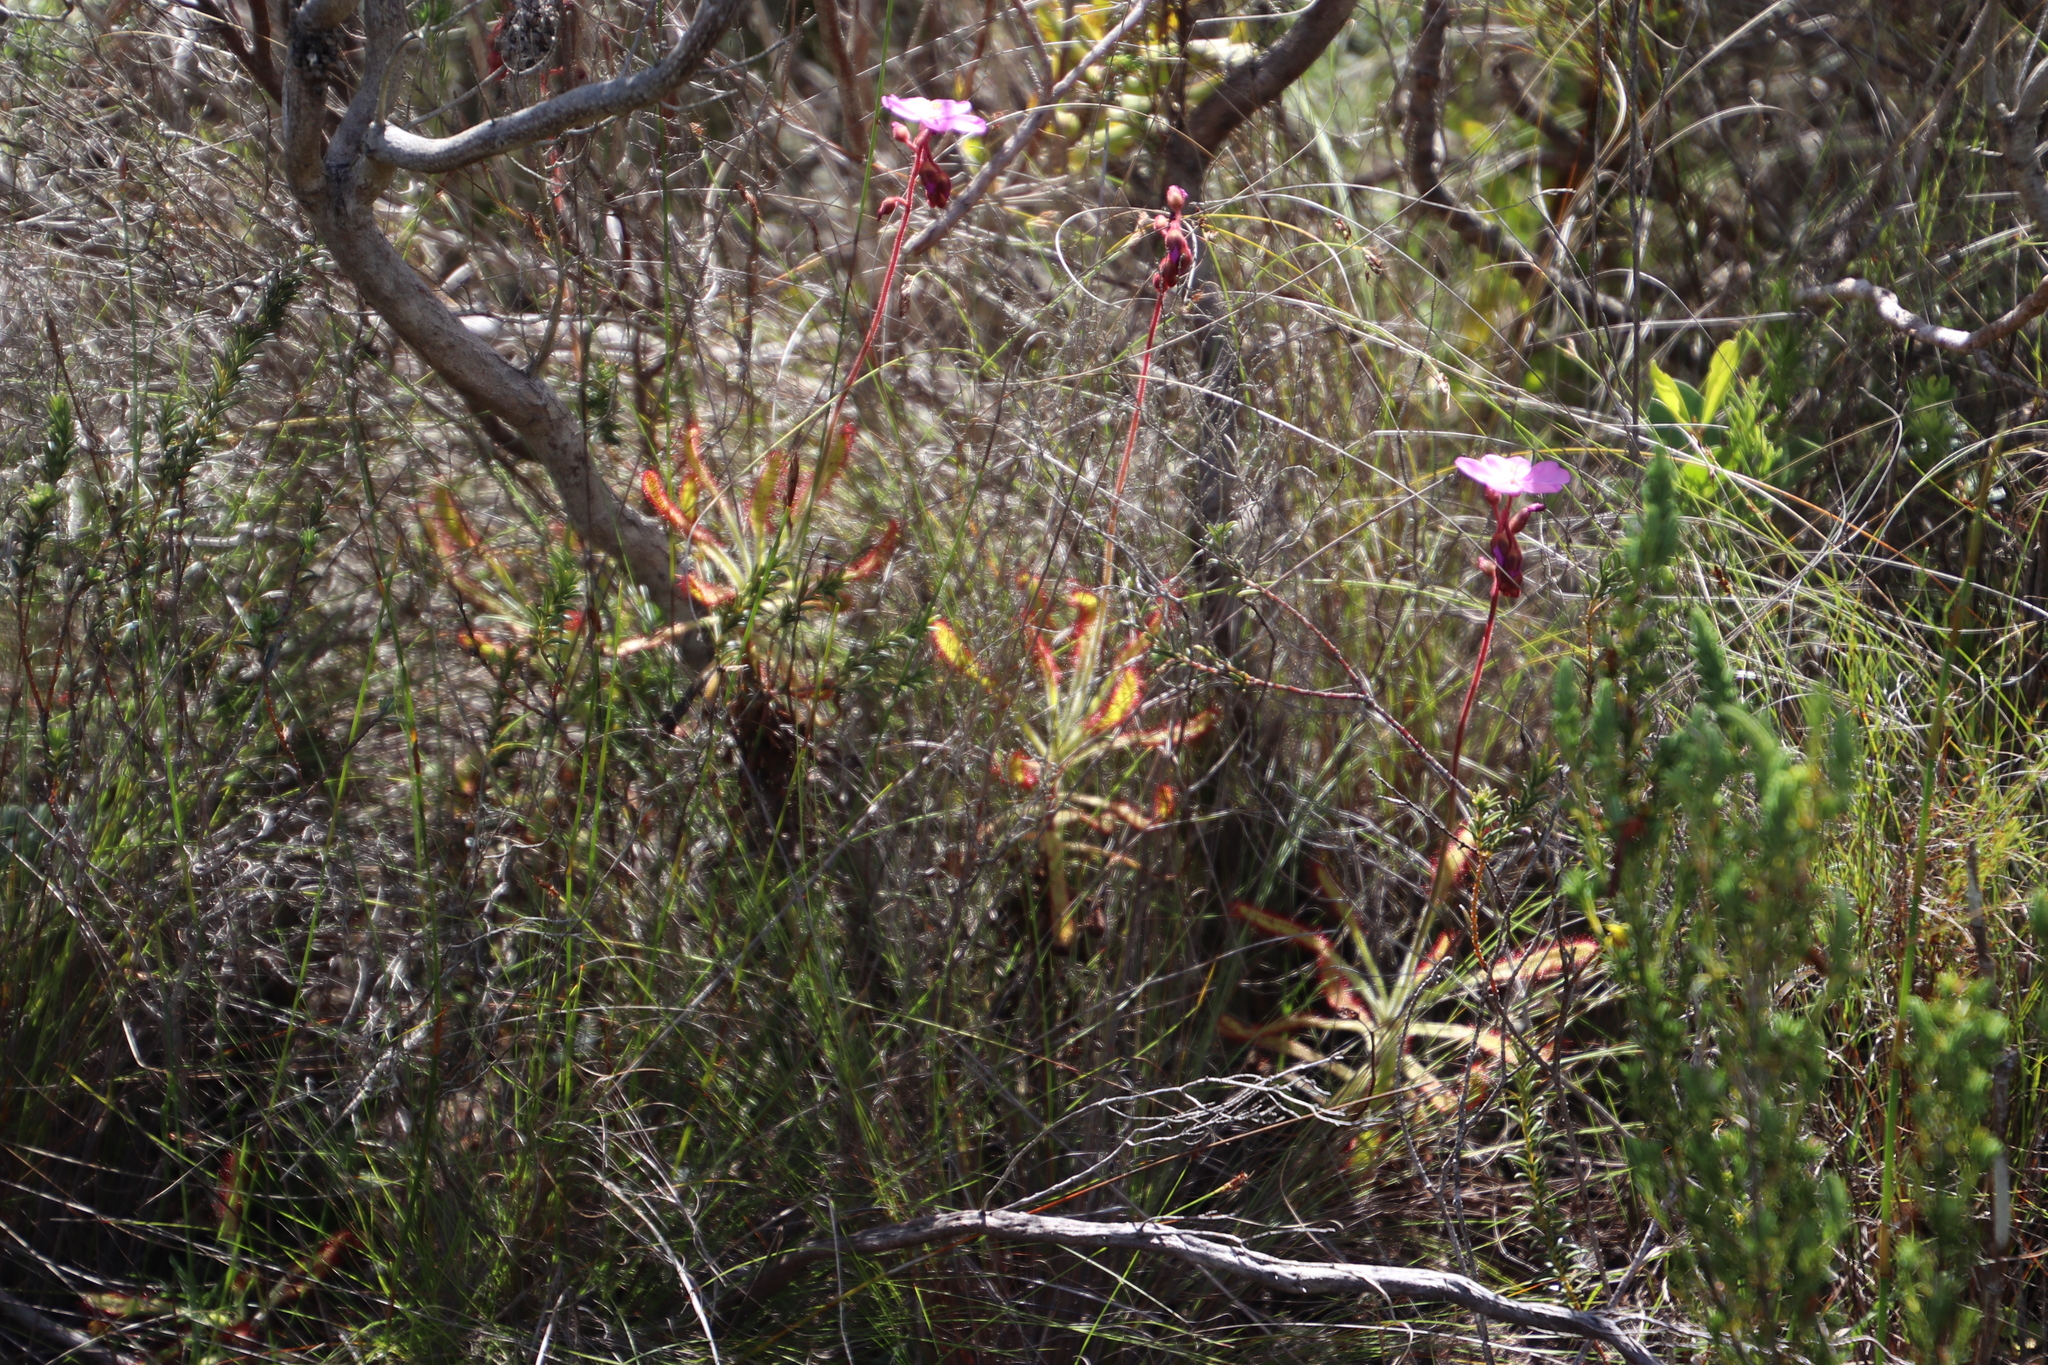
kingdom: Plantae
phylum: Tracheophyta
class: Magnoliopsida
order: Caryophyllales
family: Droseraceae
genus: Drosera
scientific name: Drosera hilaris
